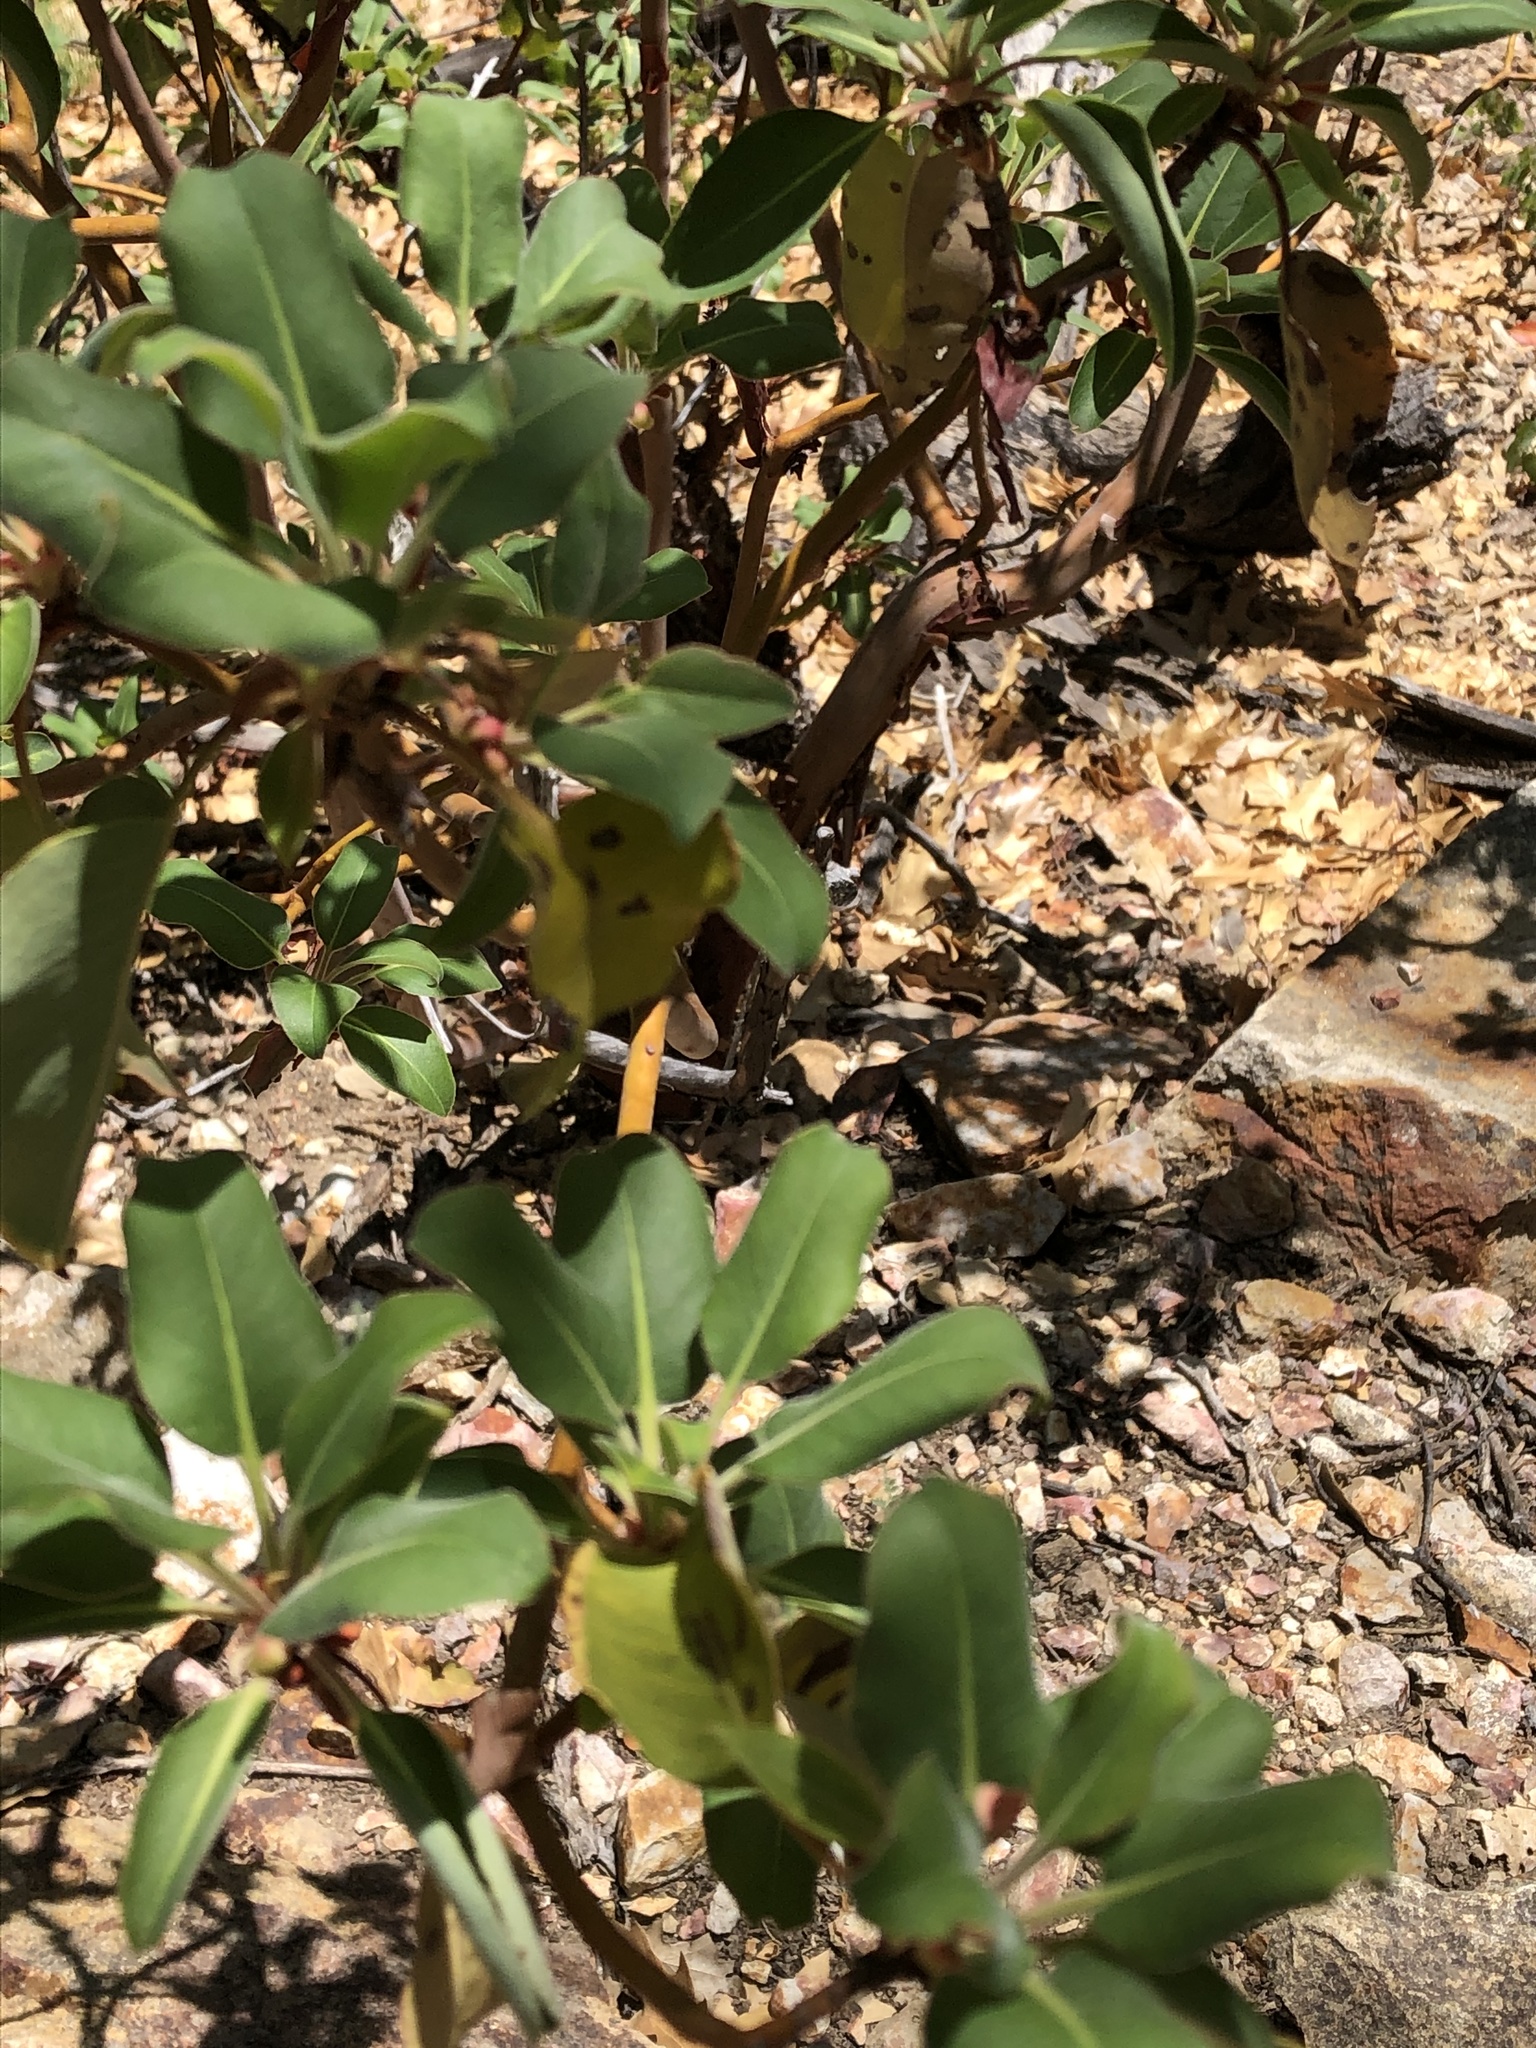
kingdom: Plantae
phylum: Tracheophyta
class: Magnoliopsida
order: Ericales
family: Ericaceae
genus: Arbutus
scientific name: Arbutus xalapensis
